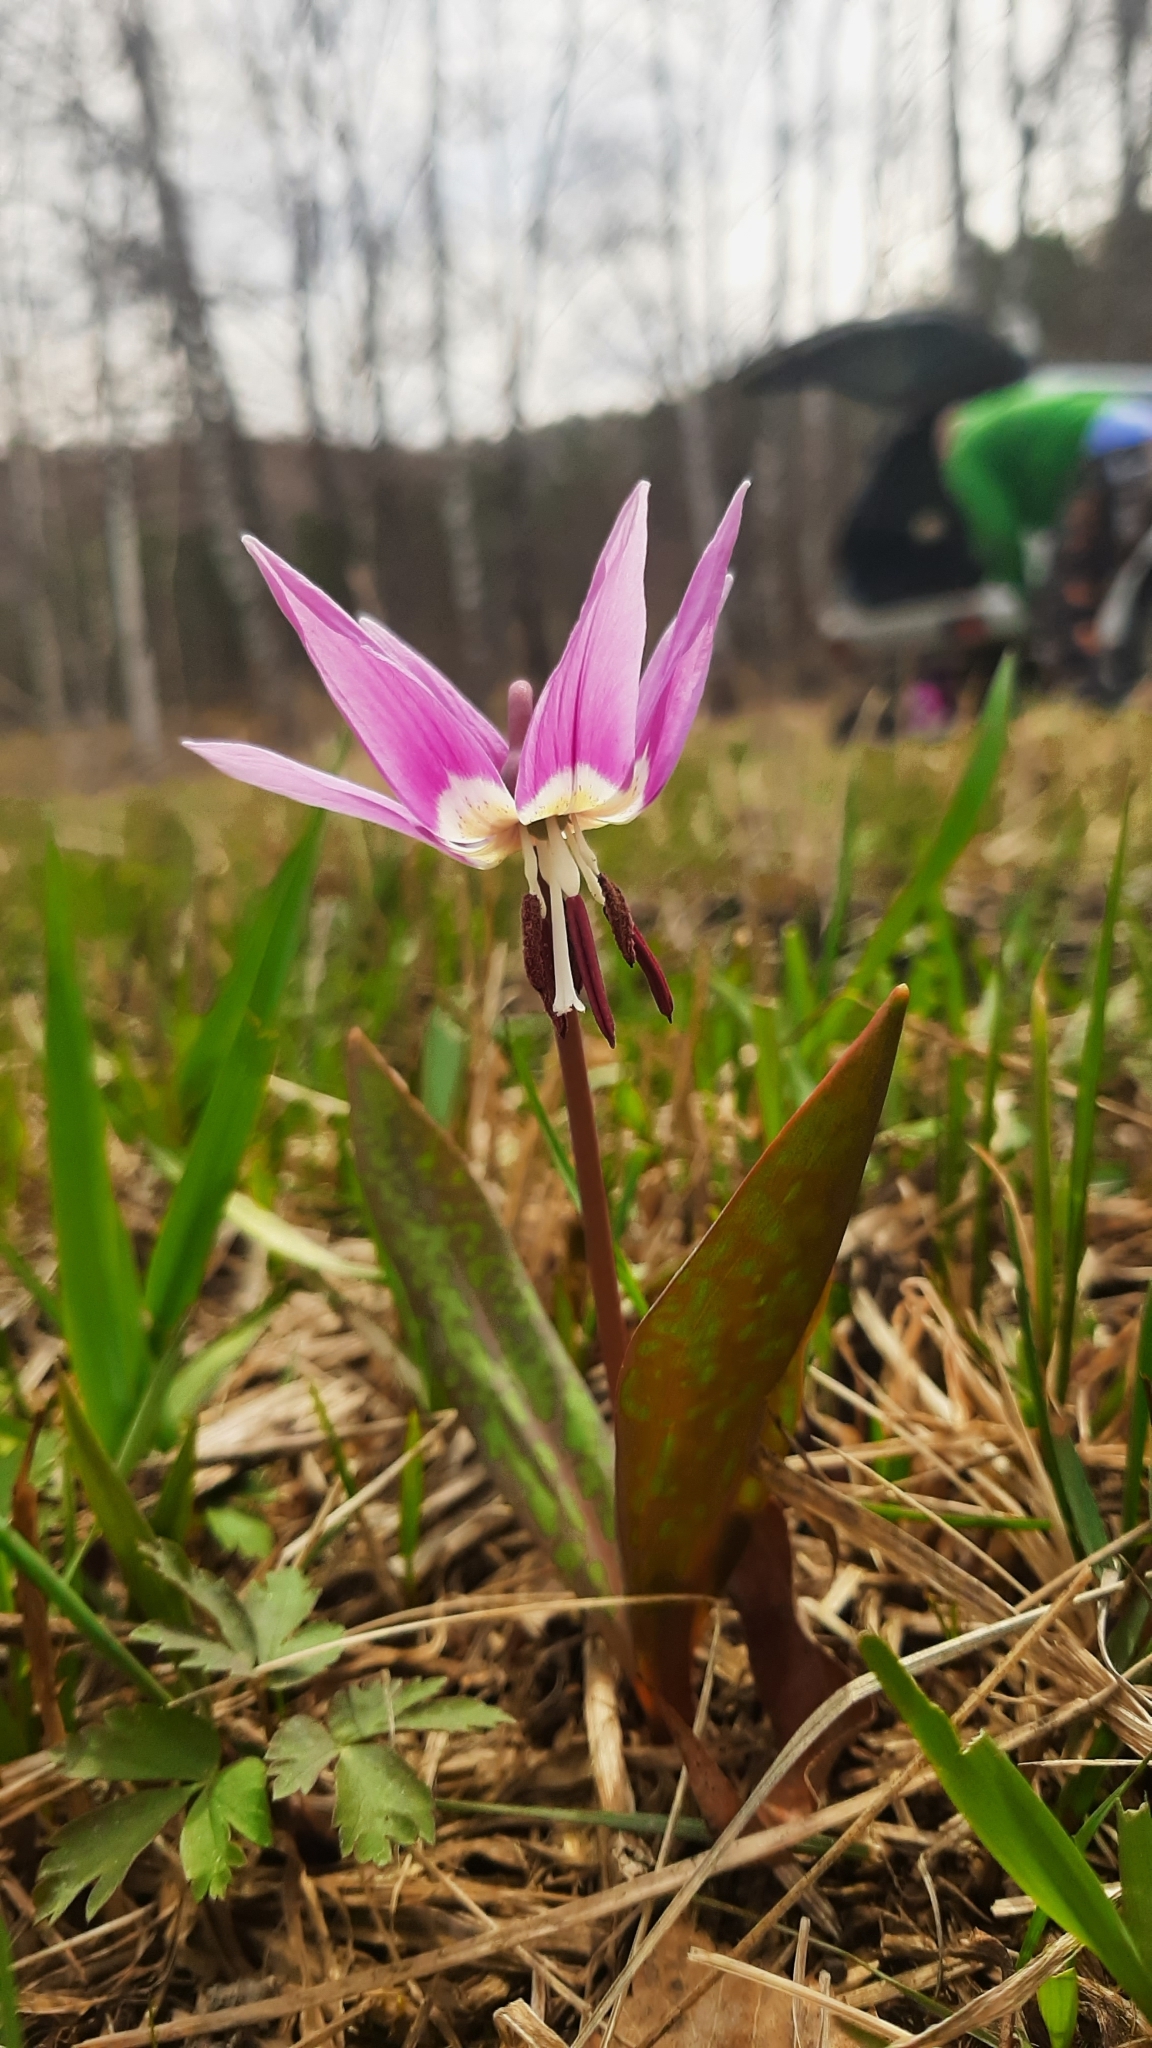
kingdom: Plantae
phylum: Tracheophyta
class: Liliopsida
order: Liliales
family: Liliaceae
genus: Erythronium
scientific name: Erythronium sulevii
